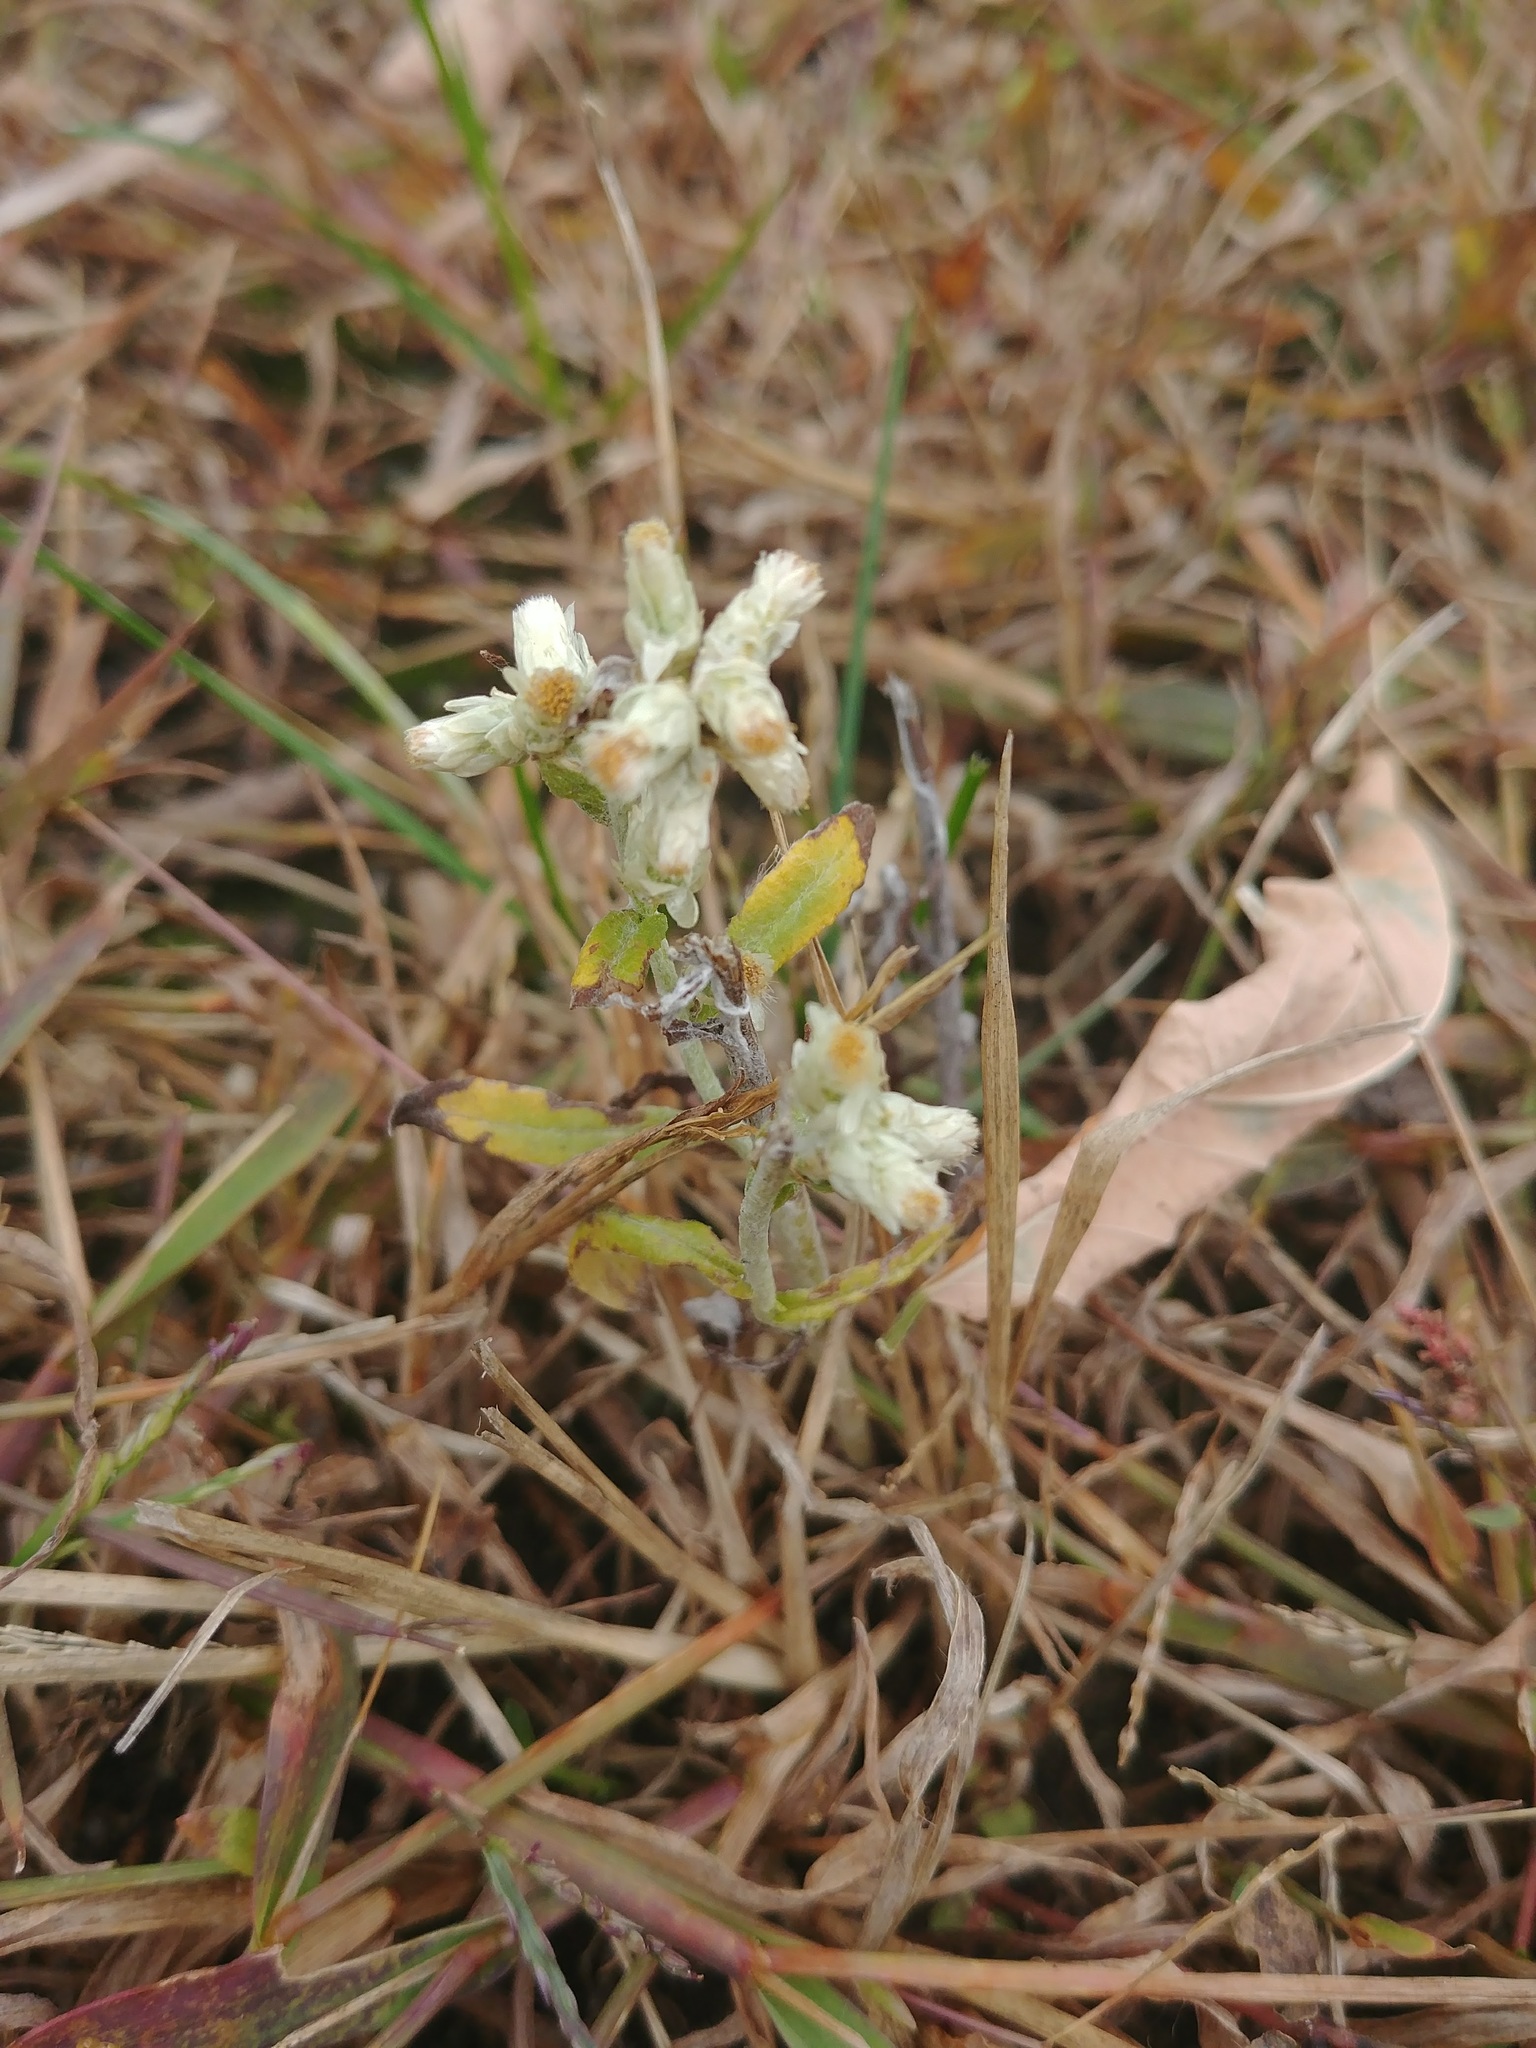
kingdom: Plantae
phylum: Tracheophyta
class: Magnoliopsida
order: Asterales
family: Asteraceae
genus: Pseudognaphalium
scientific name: Pseudognaphalium obtusifolium
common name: Eastern rabbit-tobacco
